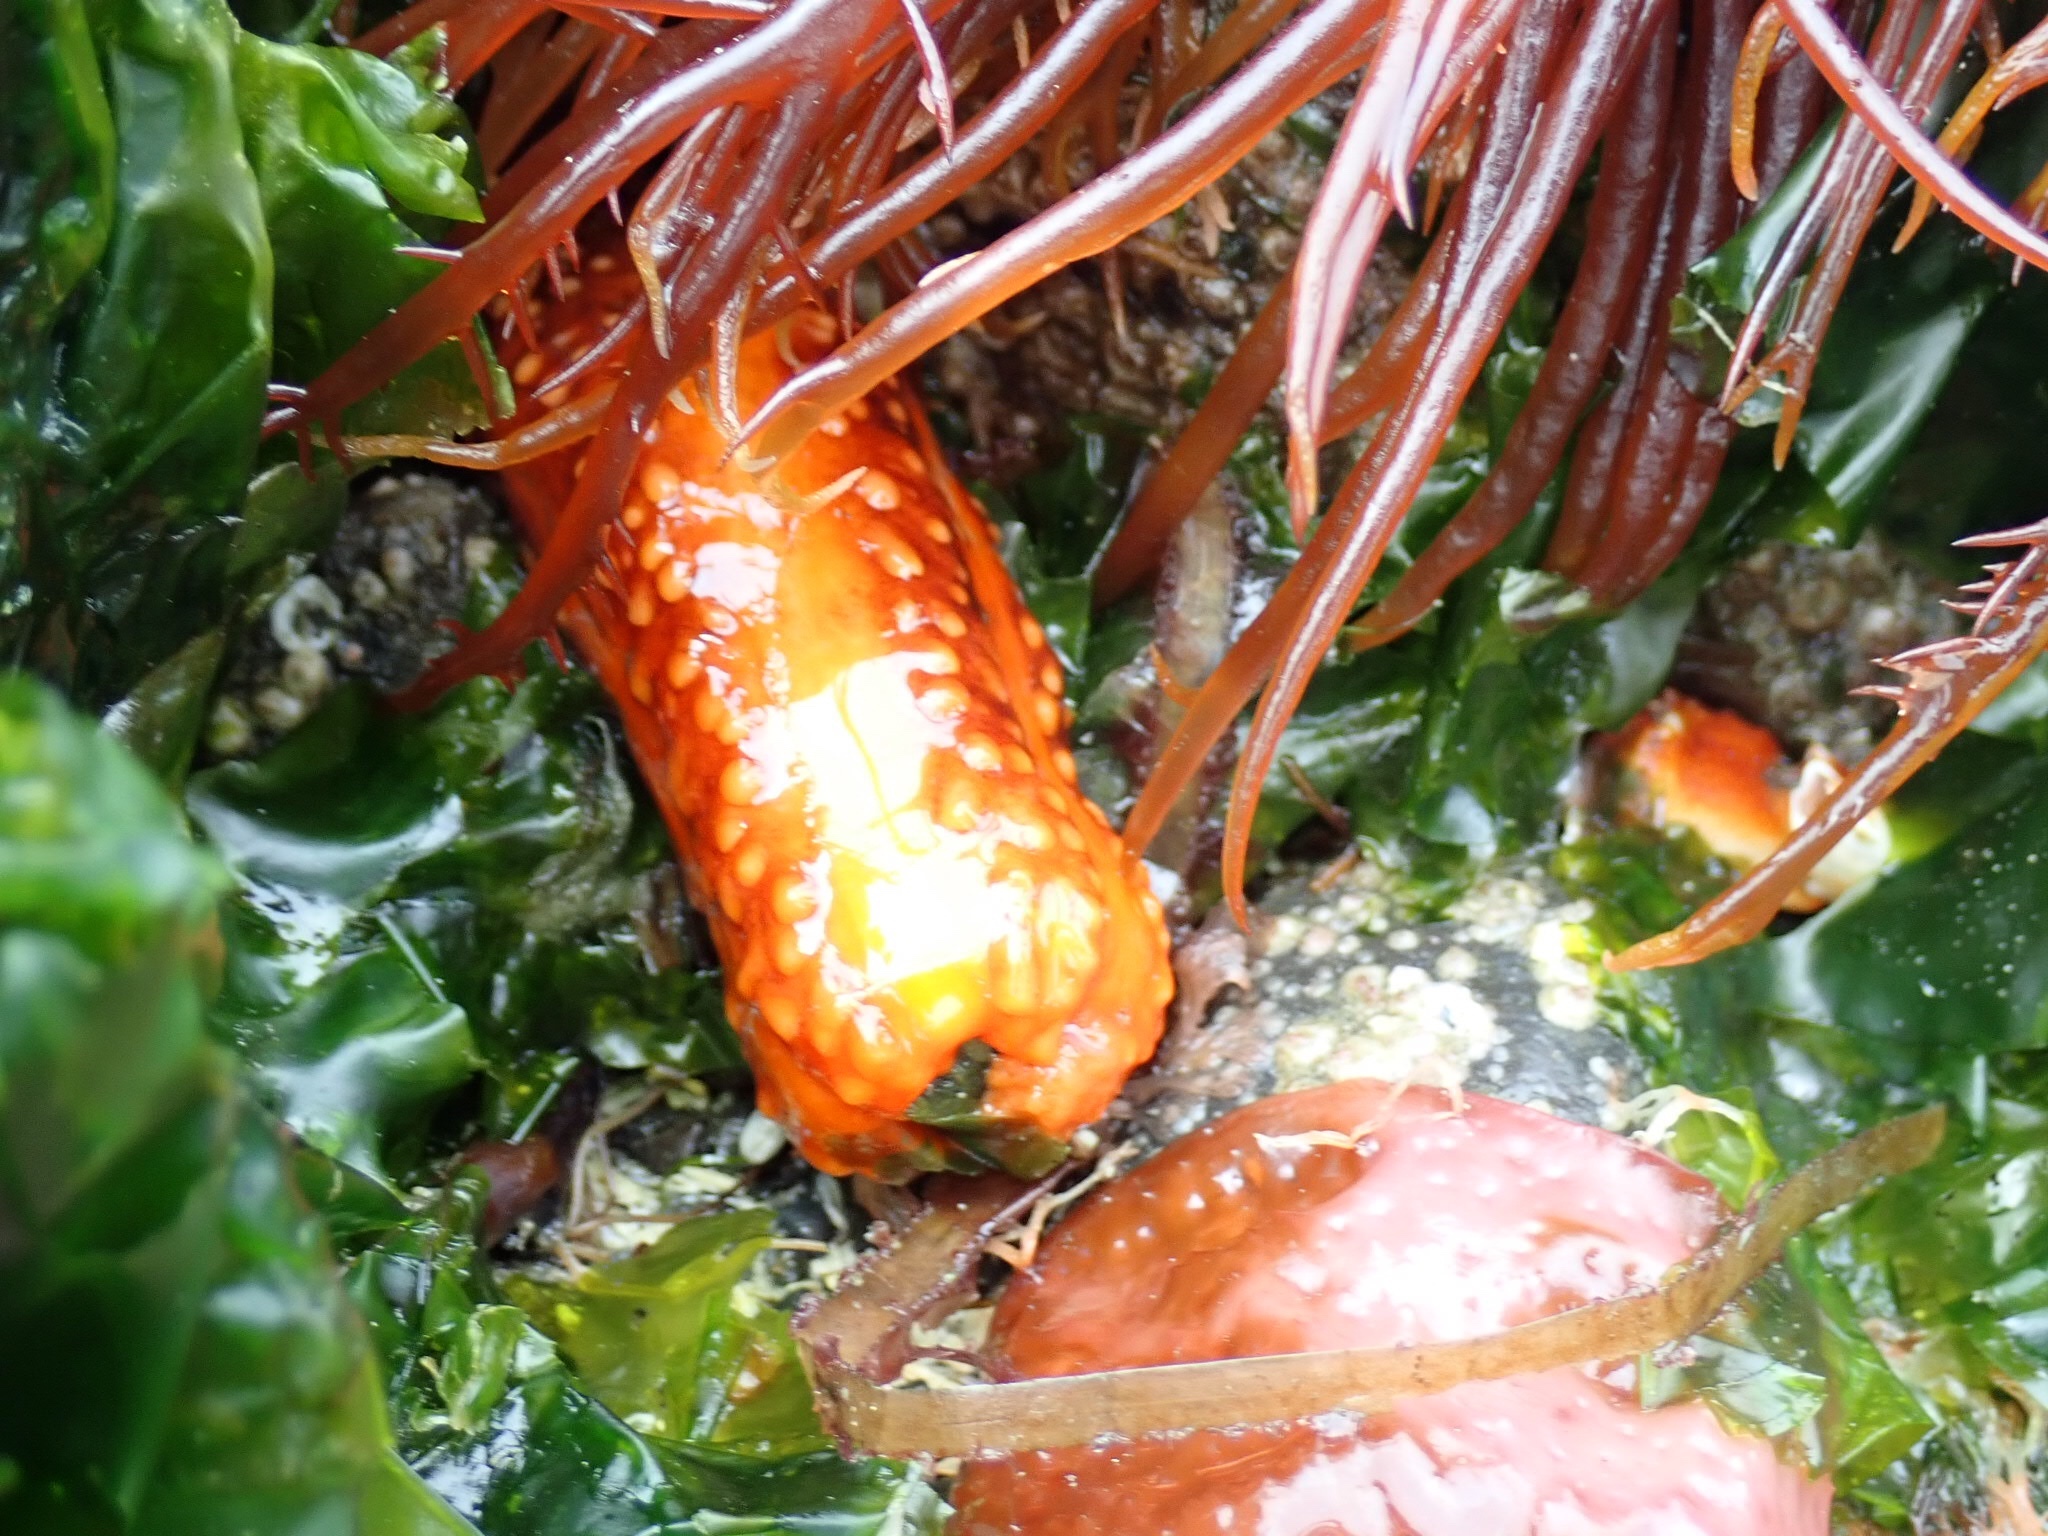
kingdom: Animalia
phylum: Echinodermata
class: Holothuroidea
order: Dendrochirotida
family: Cucumariidae
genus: Cucumaria
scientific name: Cucumaria miniata
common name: Orange sea cucumber
